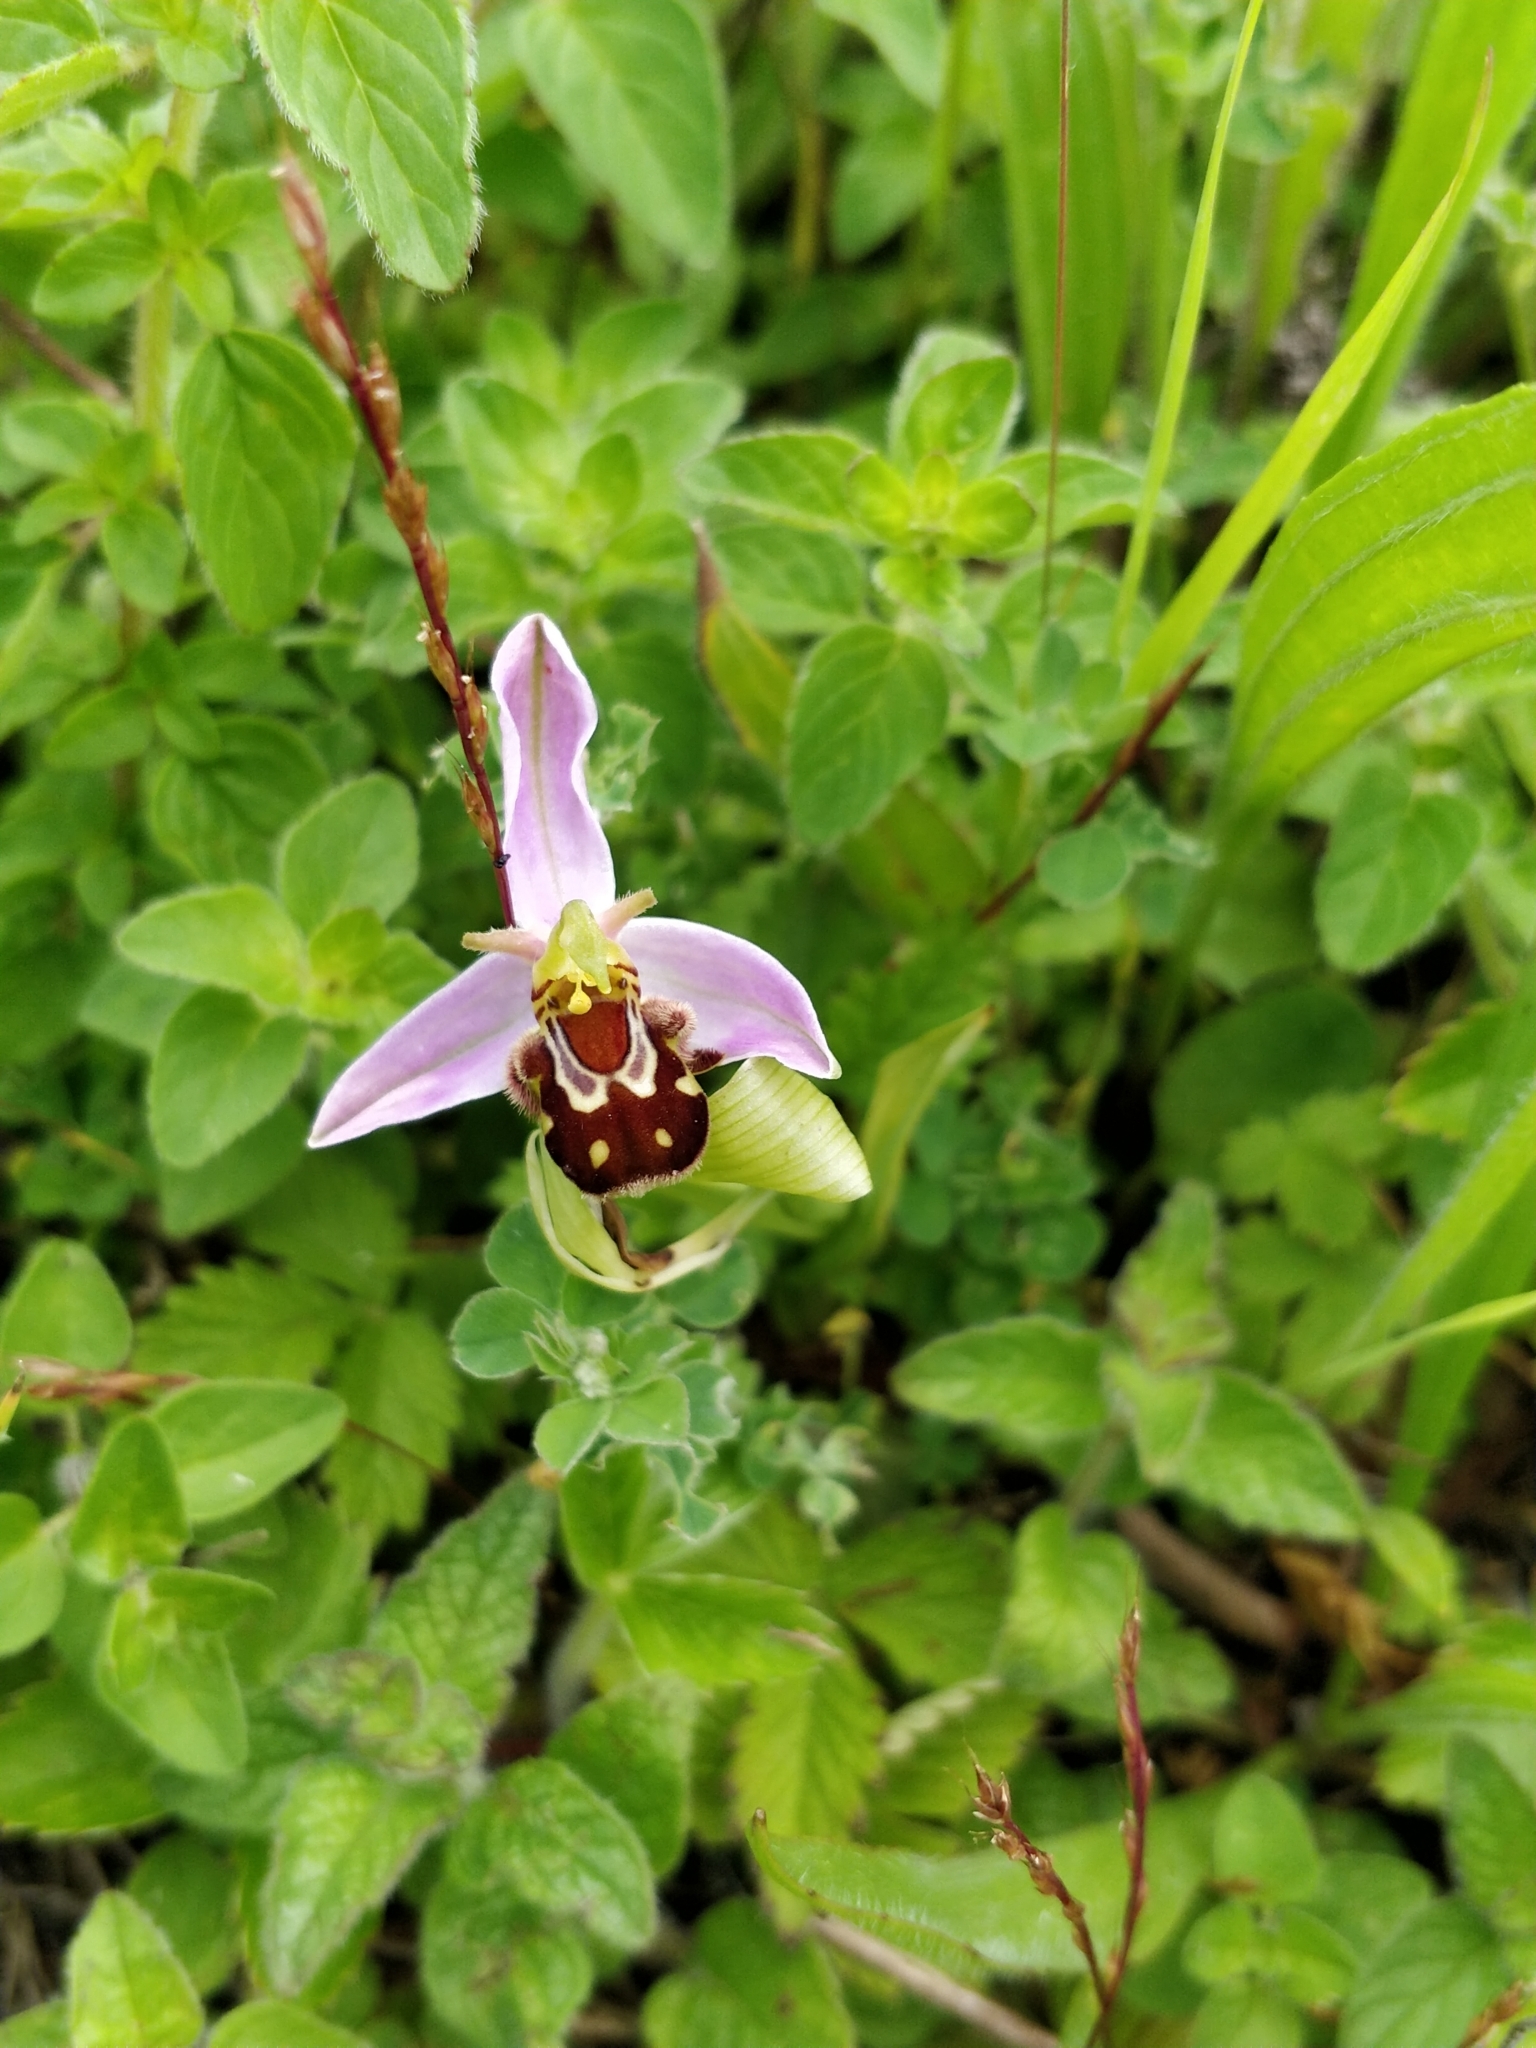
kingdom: Plantae
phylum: Tracheophyta
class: Liliopsida
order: Asparagales
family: Orchidaceae
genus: Ophrys
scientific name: Ophrys apifera
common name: Bee orchid
